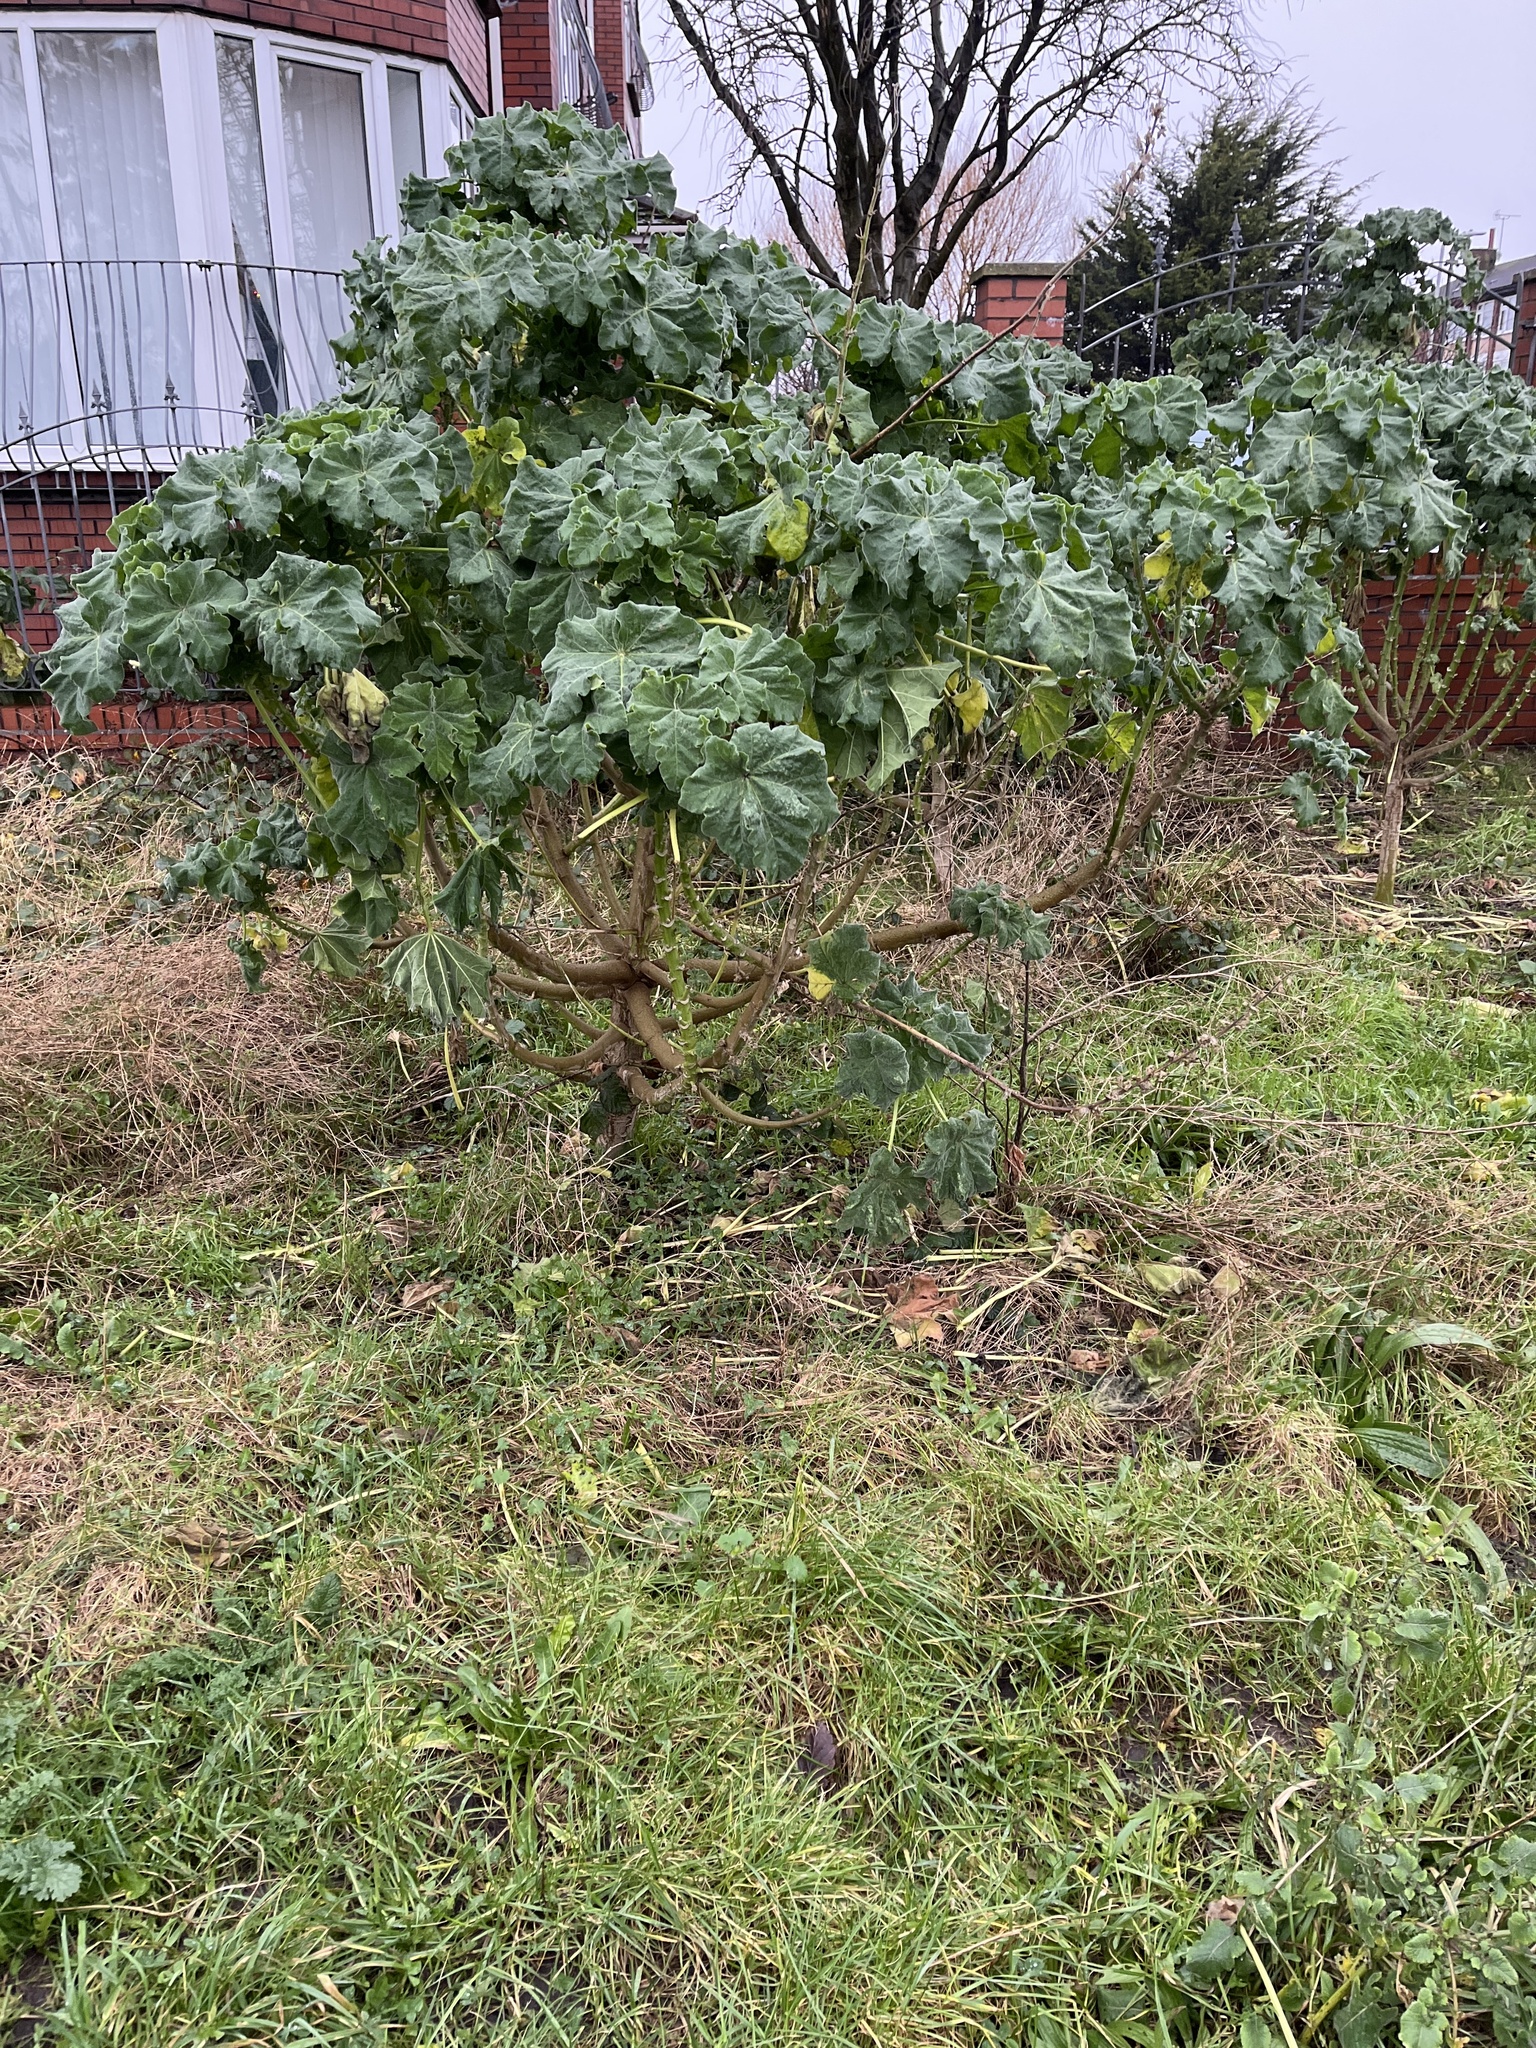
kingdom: Plantae
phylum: Tracheophyta
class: Magnoliopsida
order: Malvales
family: Malvaceae
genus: Malva
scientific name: Malva arborea
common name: Tree mallow
